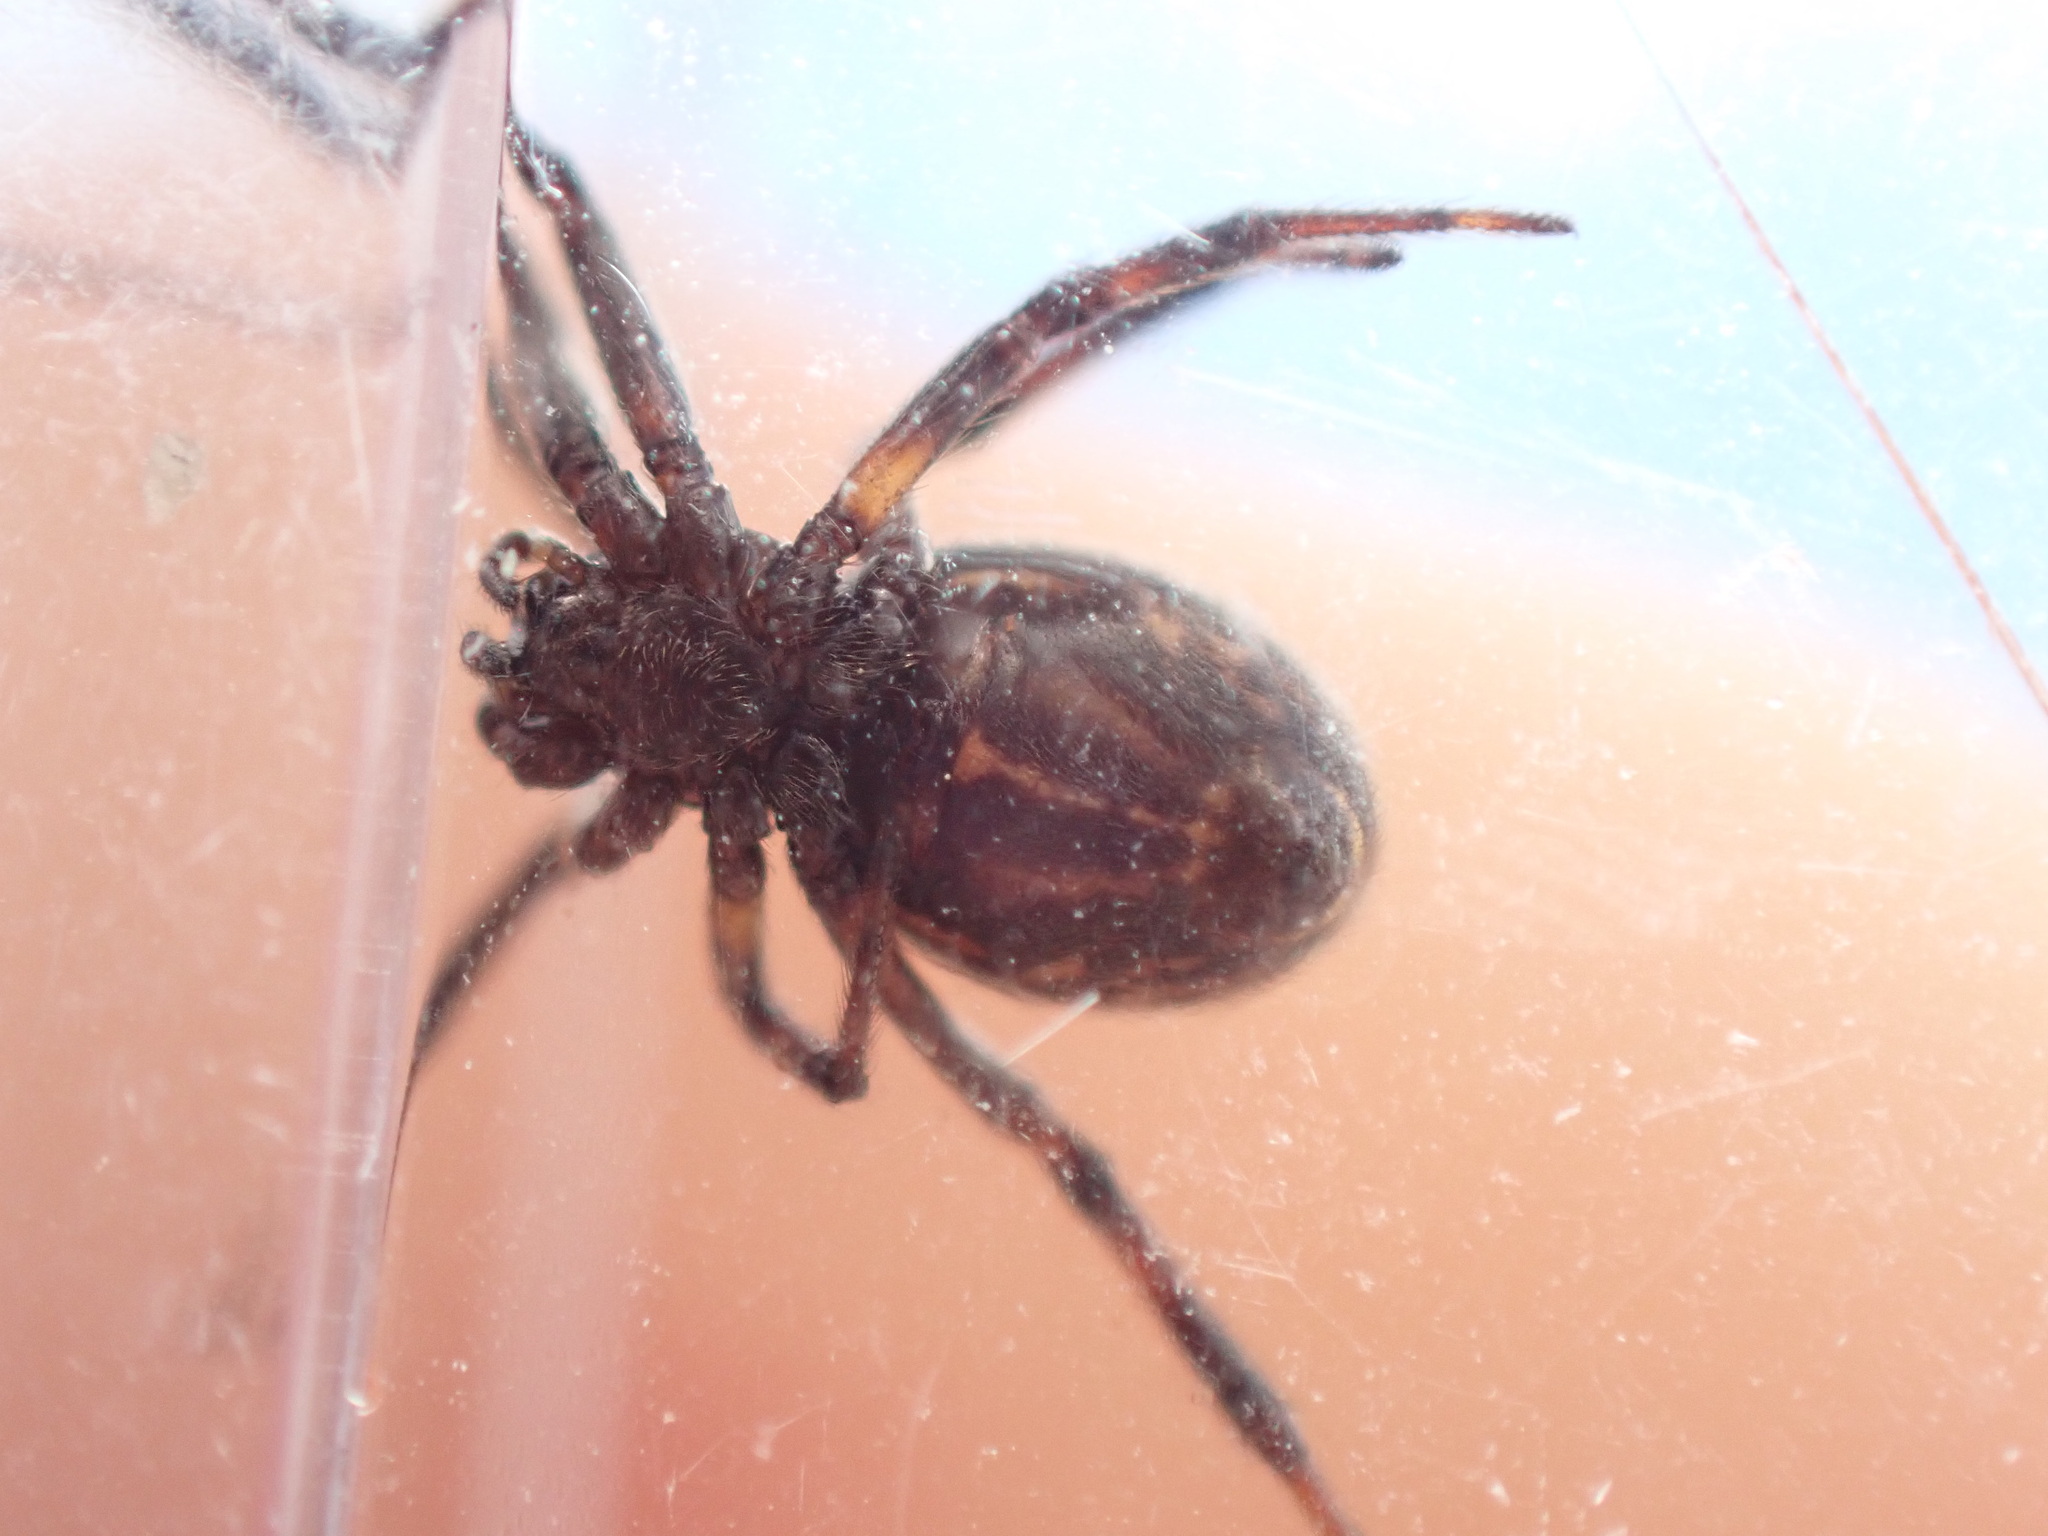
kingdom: Animalia
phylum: Arthropoda
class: Arachnida
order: Araneae
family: Theridiidae
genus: Steatoda
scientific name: Steatoda incomposita
